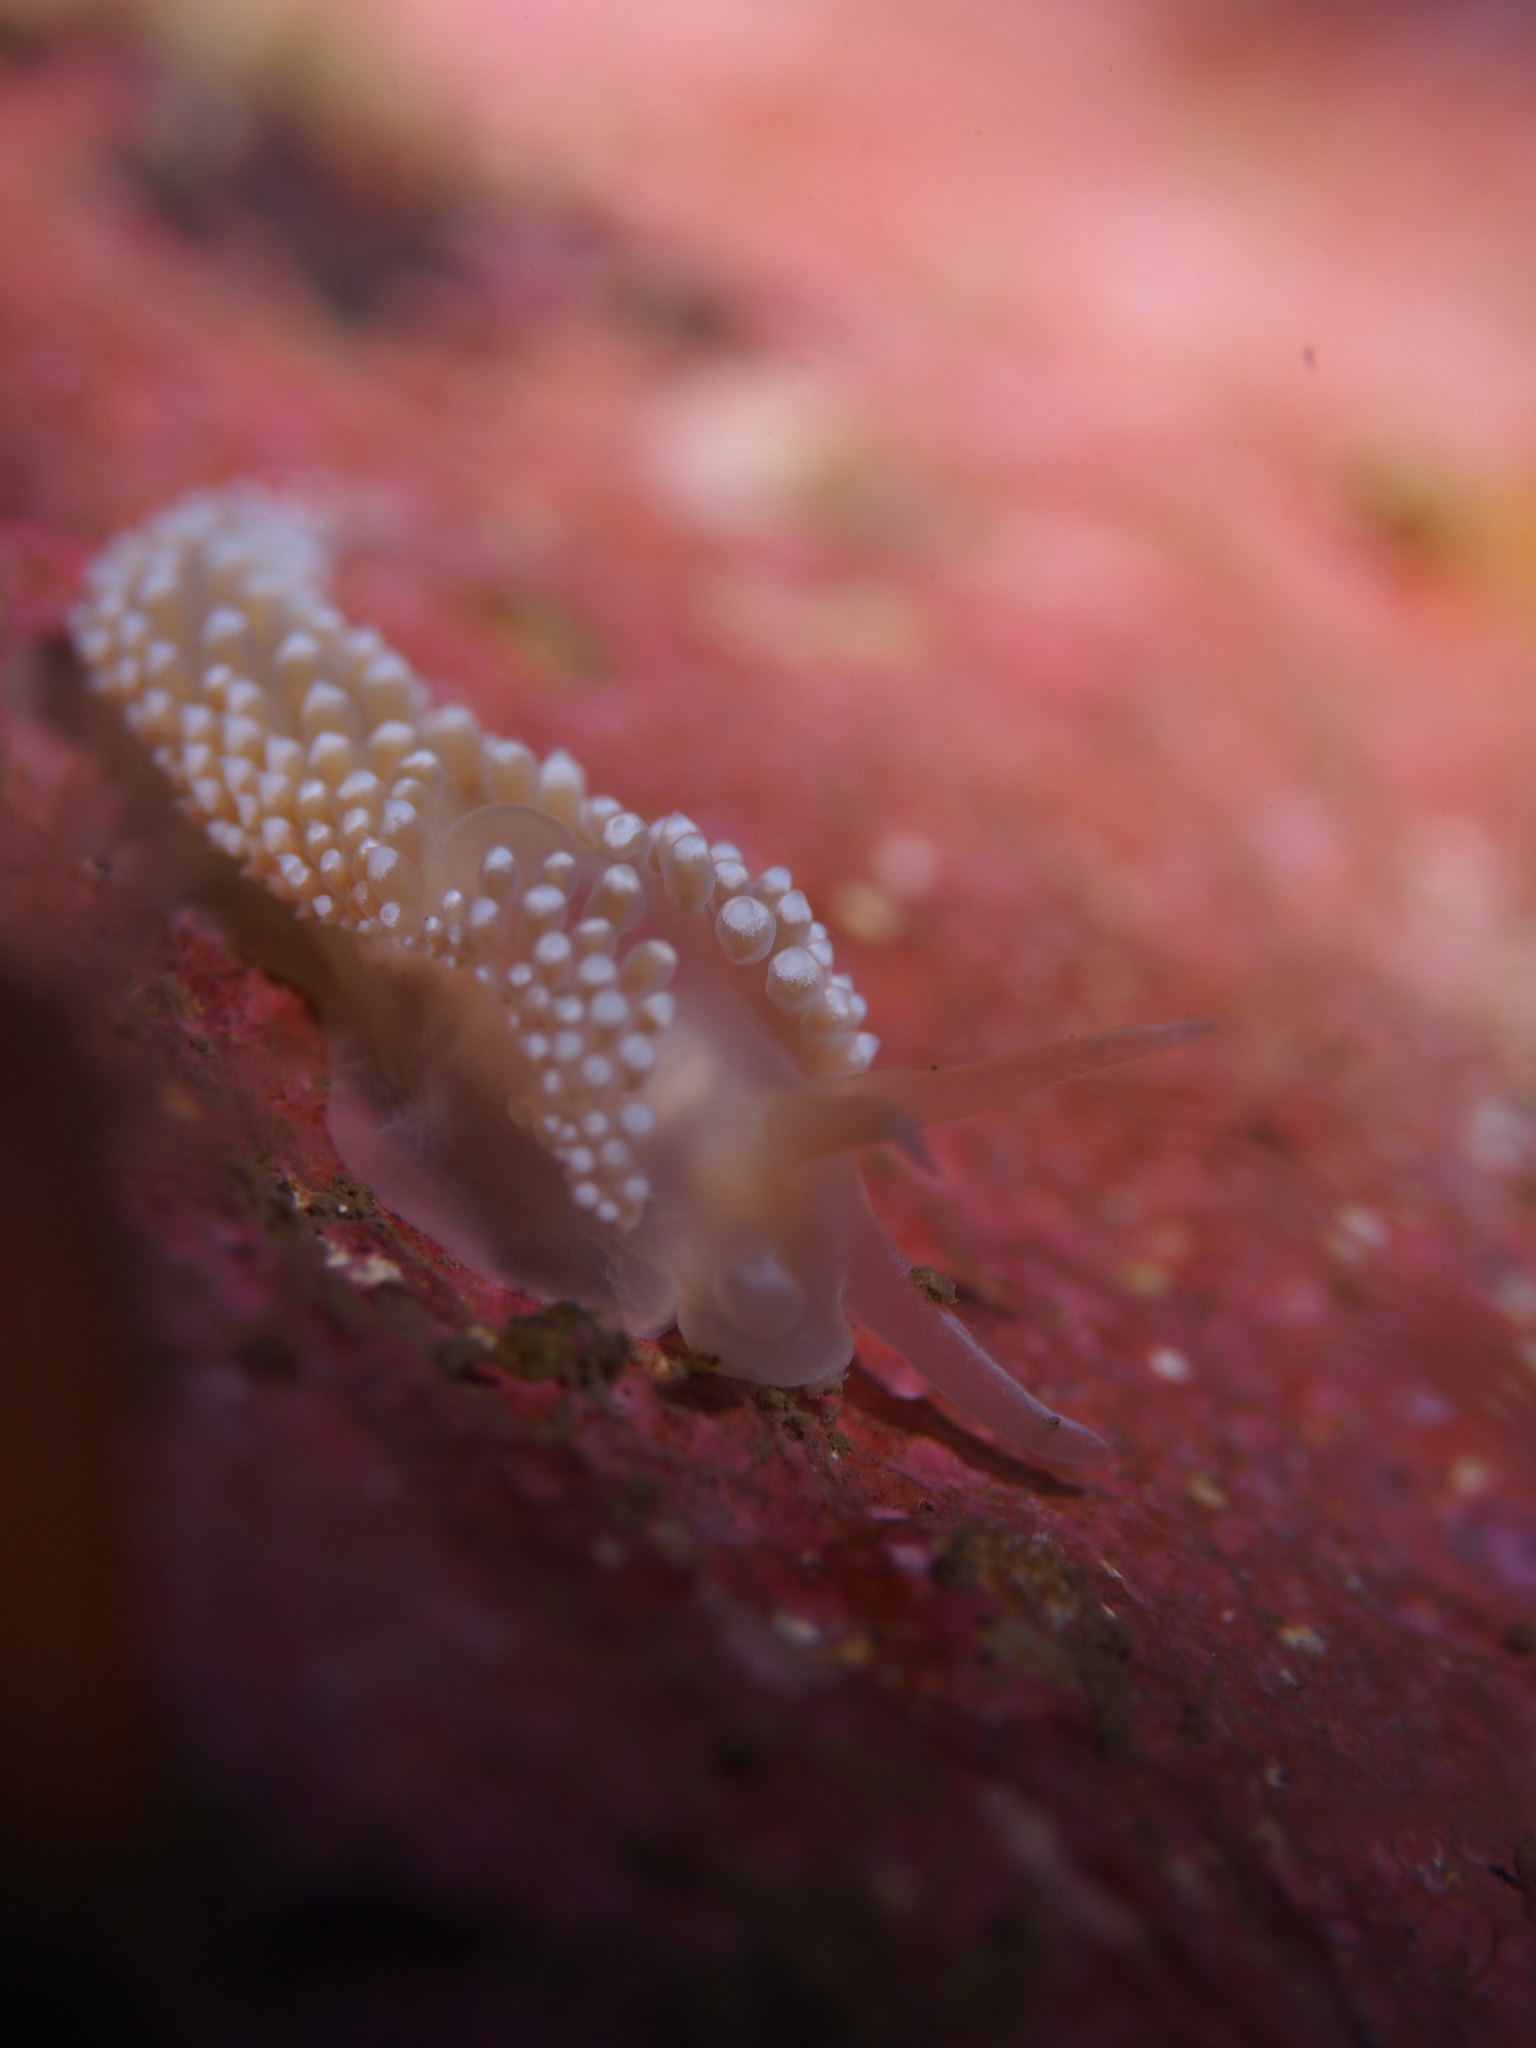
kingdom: Animalia
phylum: Mollusca
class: Gastropoda
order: Nudibranchia
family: Coryphellidae
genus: Coryphella
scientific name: Coryphella verrucosa
